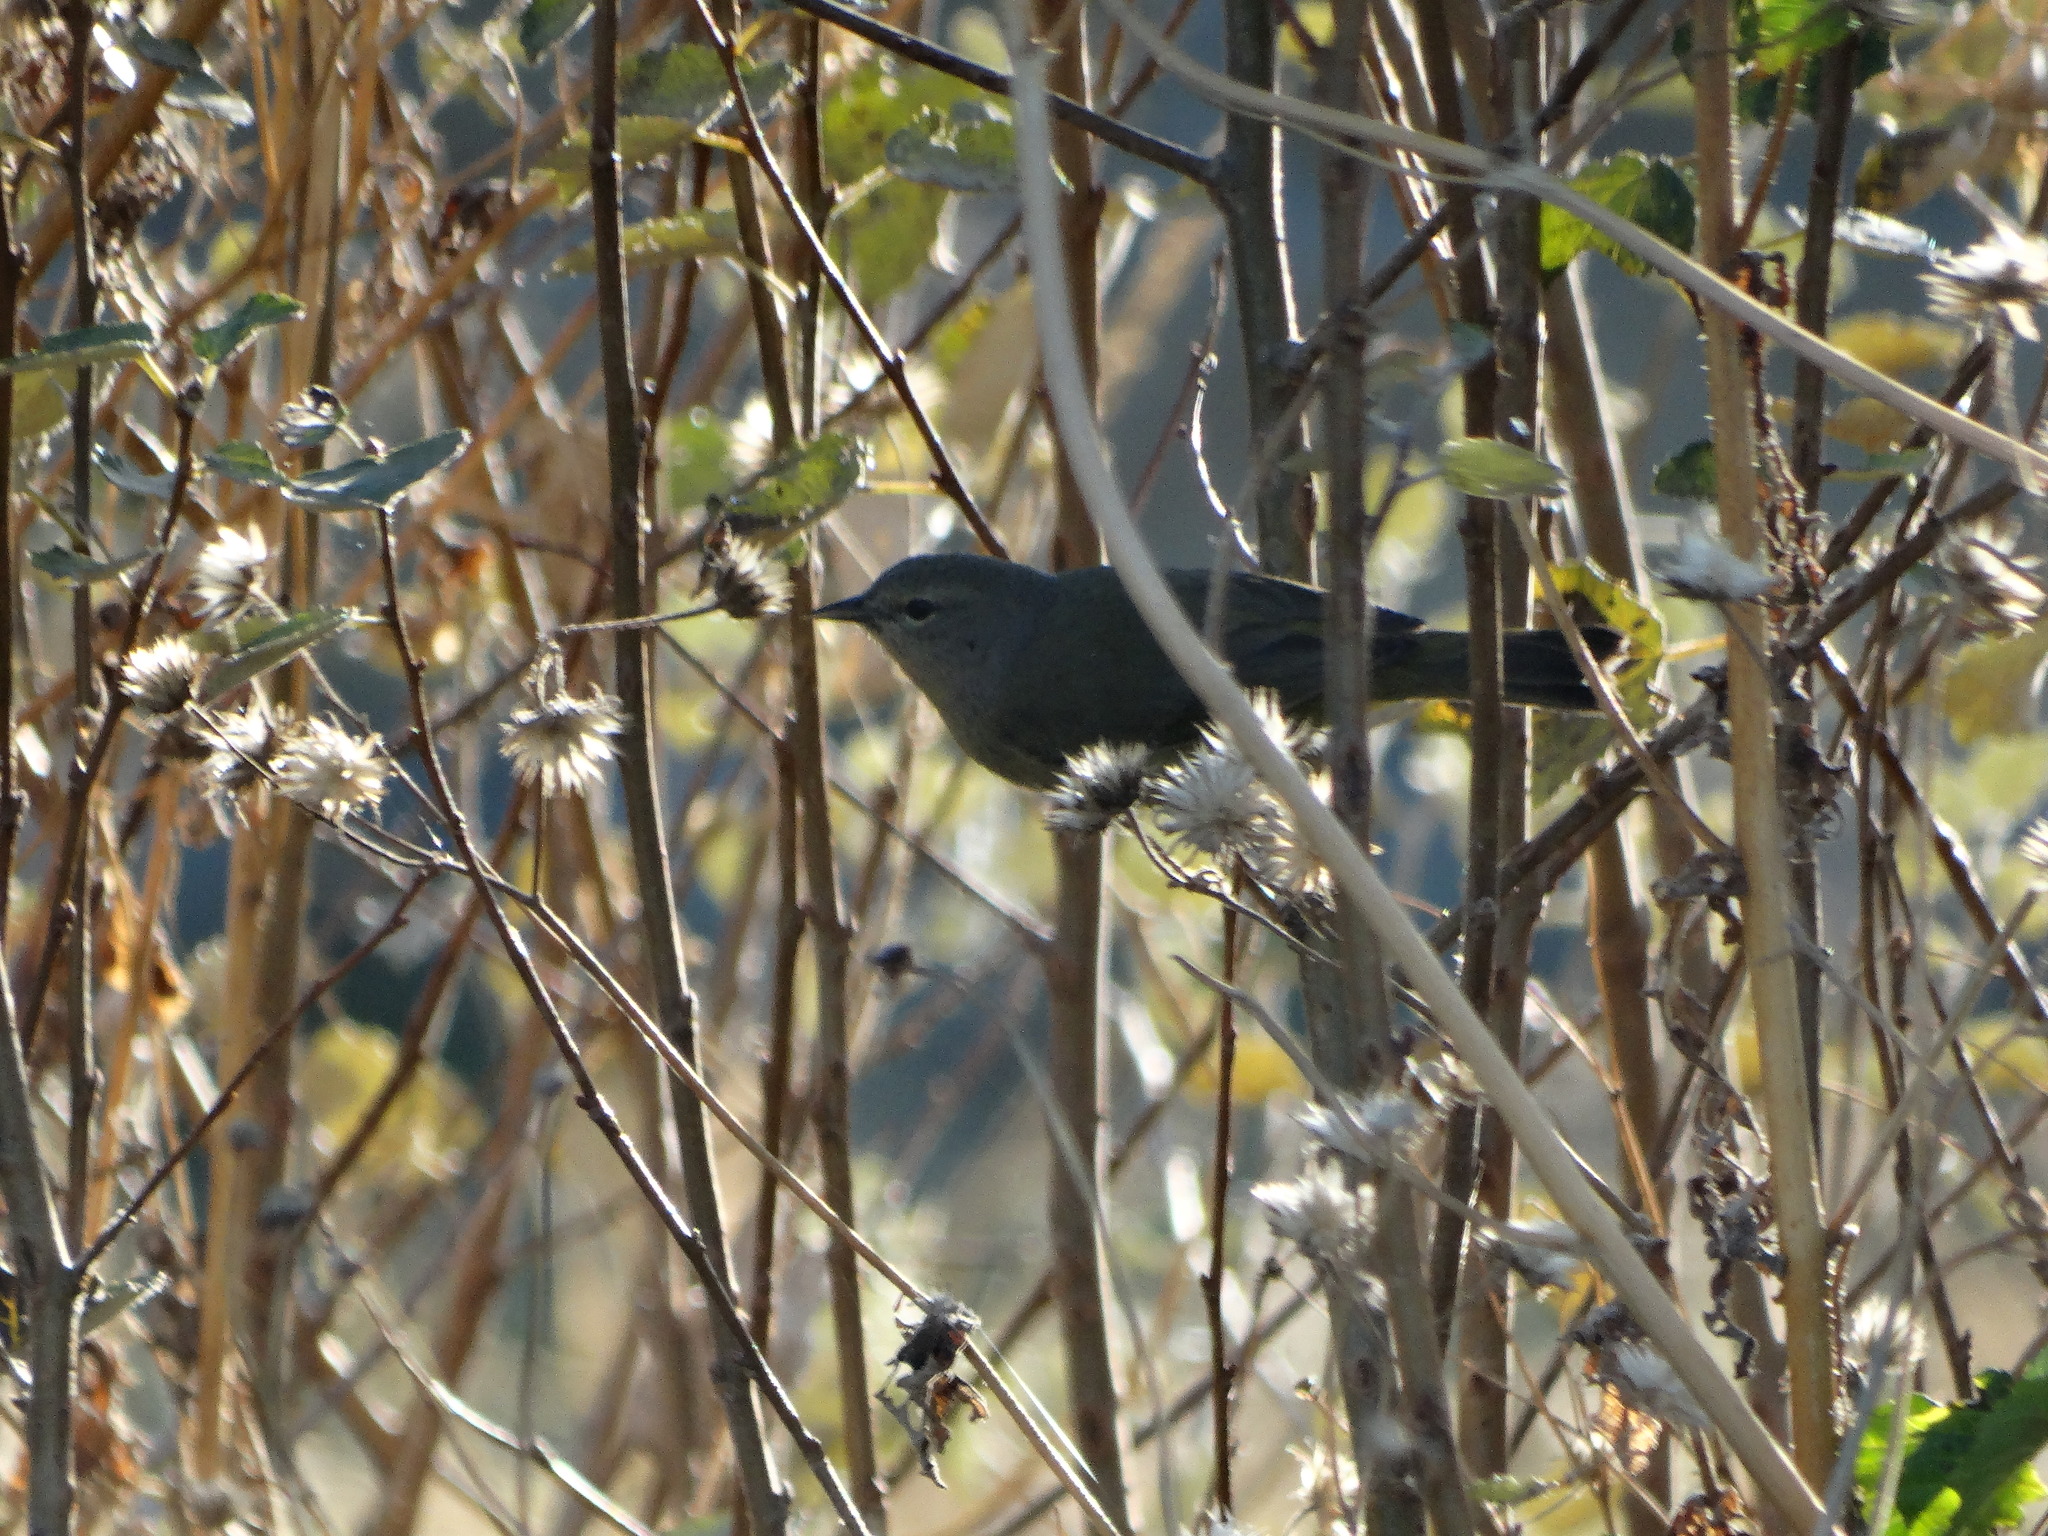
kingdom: Animalia
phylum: Chordata
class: Aves
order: Passeriformes
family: Parulidae
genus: Leiothlypis
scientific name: Leiothlypis celata
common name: Orange-crowned warbler
